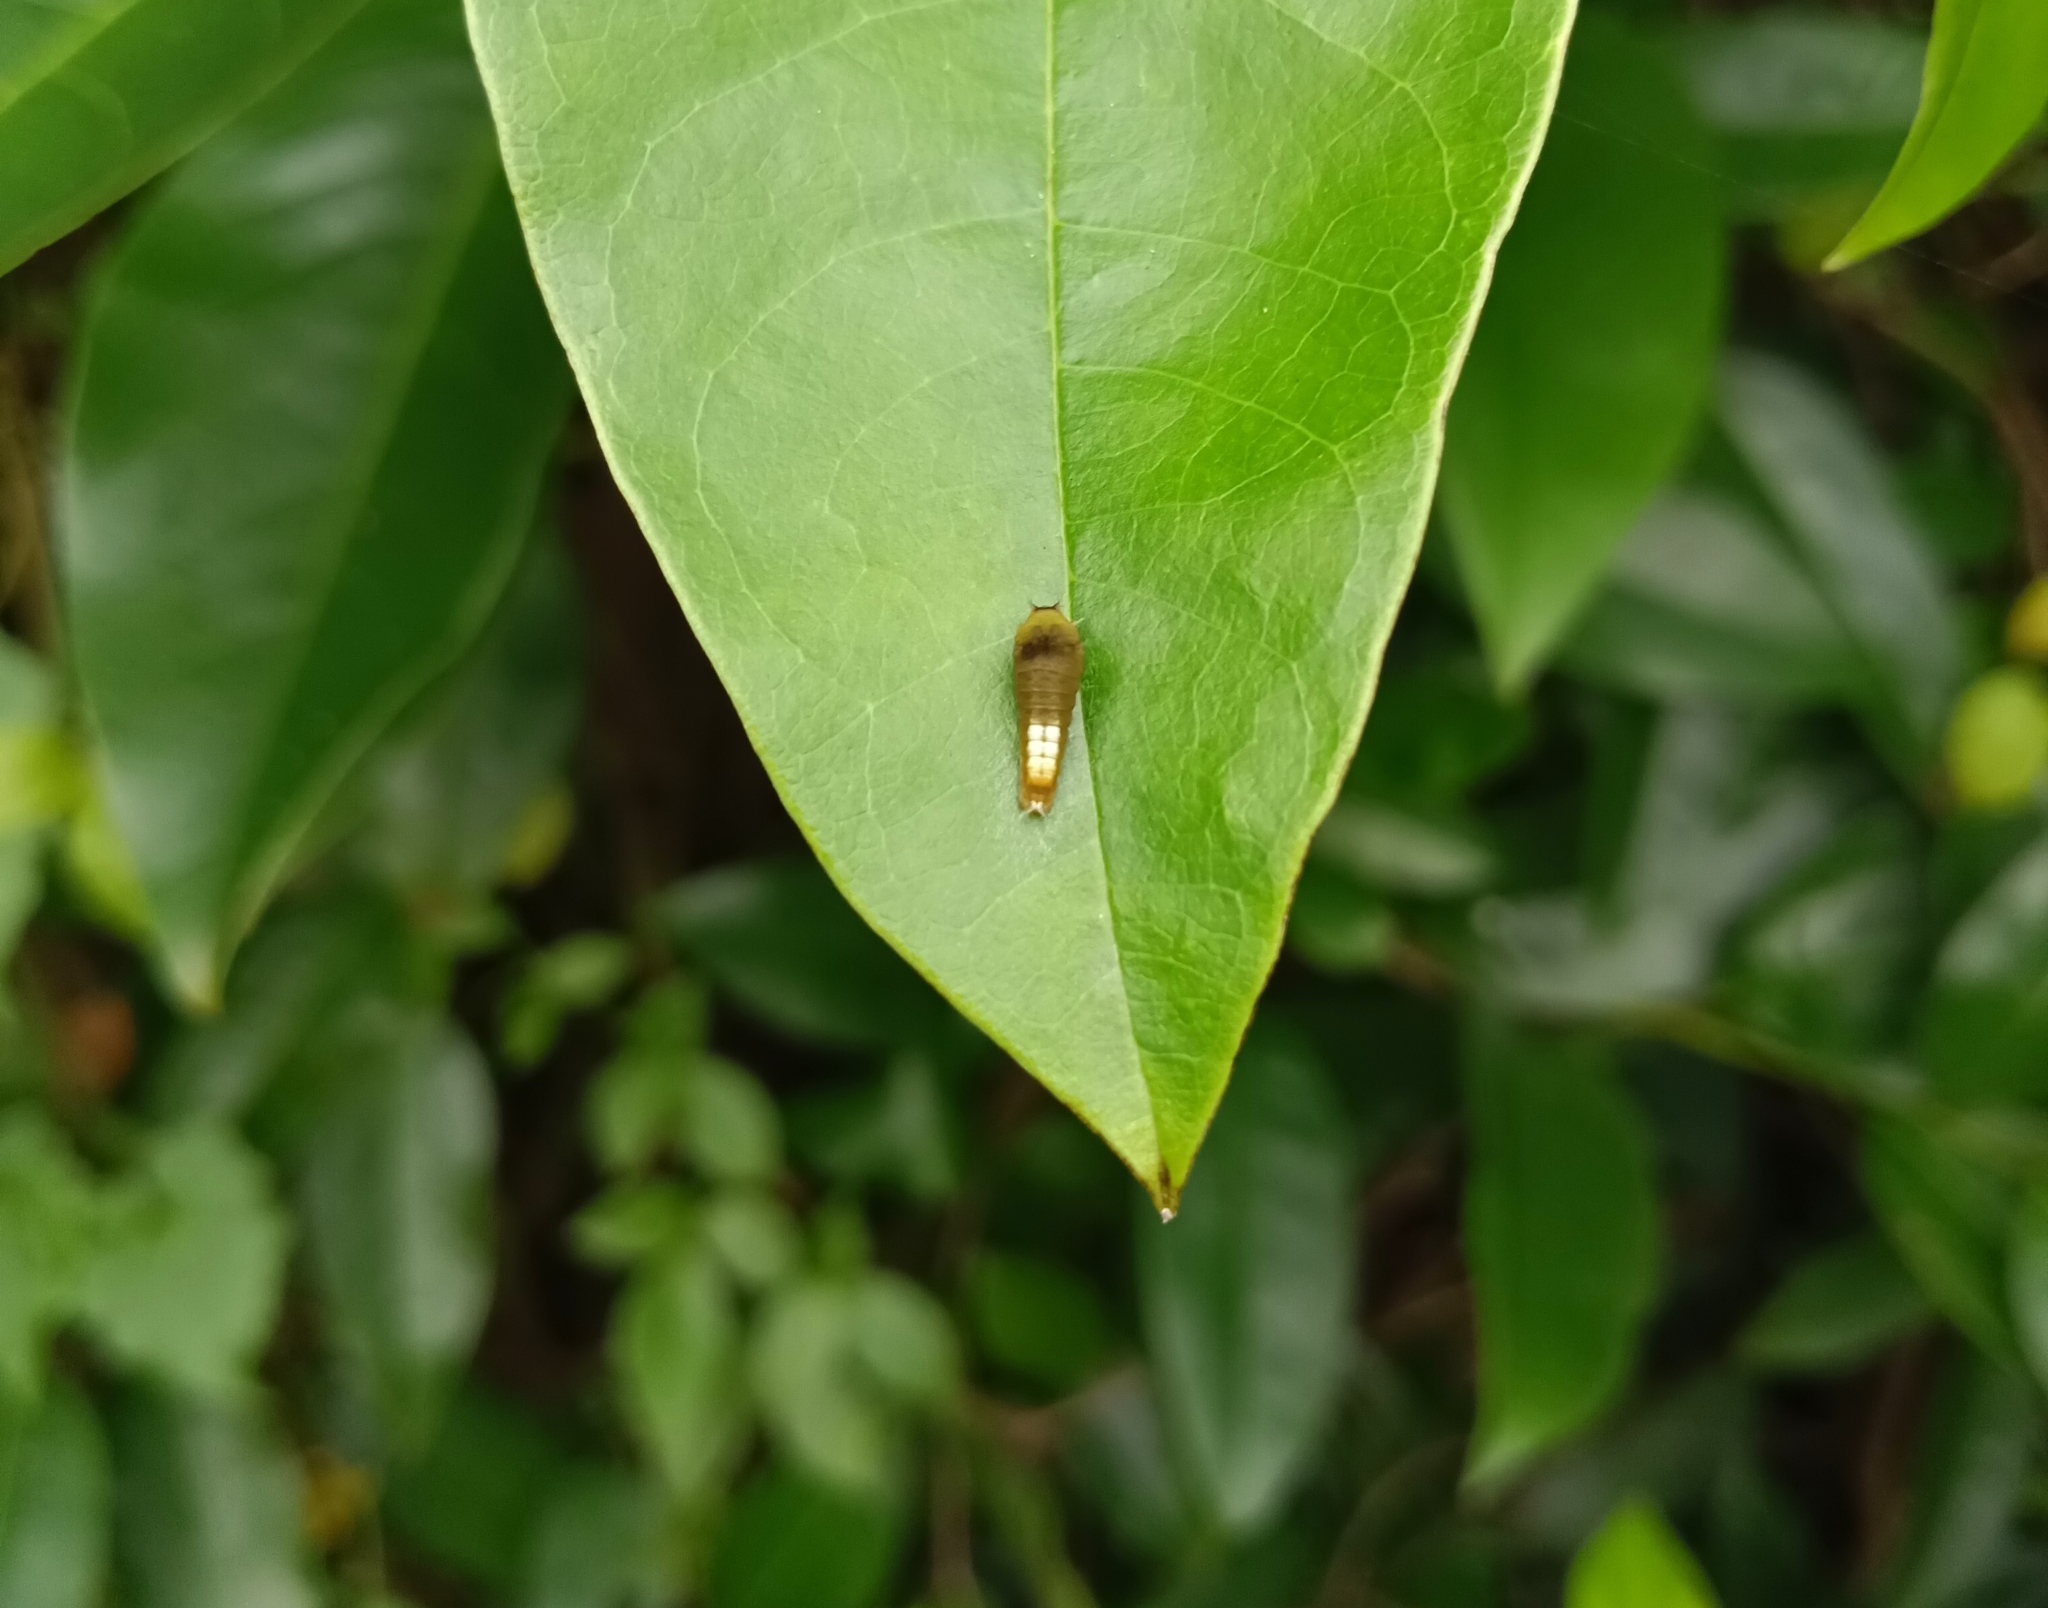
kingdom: Animalia
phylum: Arthropoda
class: Insecta
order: Lepidoptera
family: Papilionidae
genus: Graphium
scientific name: Graphium agamemnon
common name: Tailed jay
